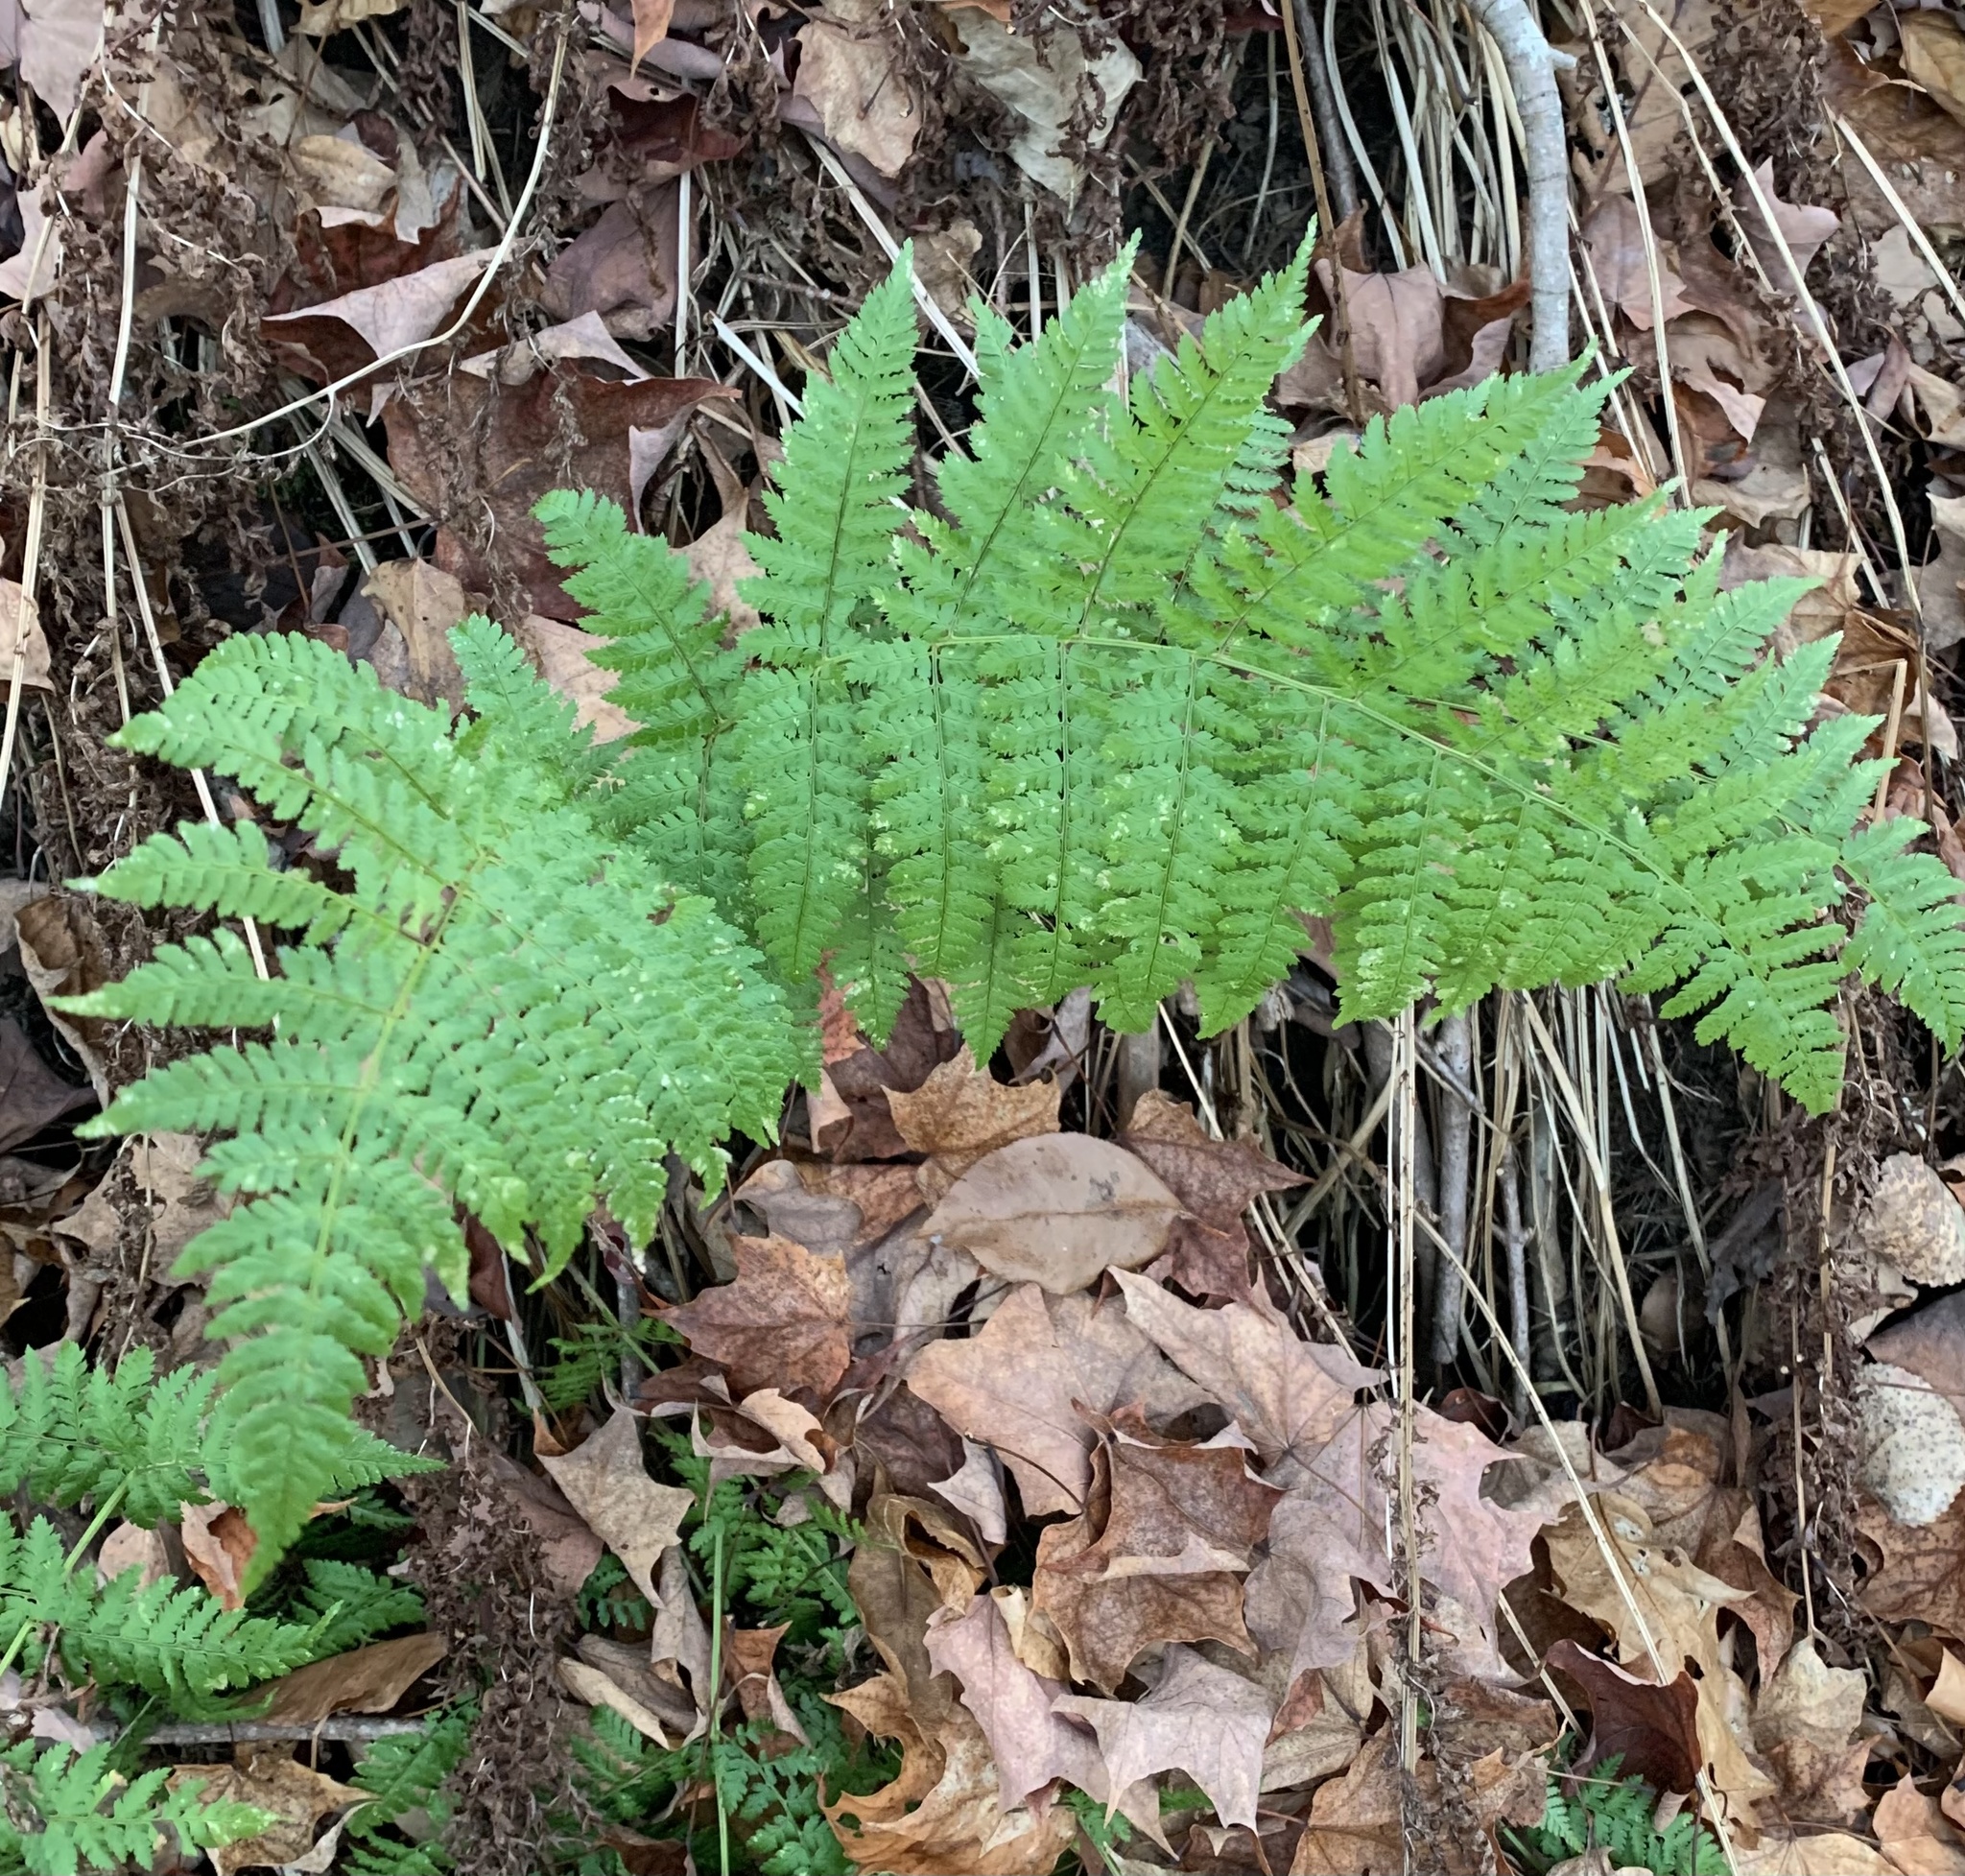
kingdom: Plantae
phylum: Tracheophyta
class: Polypodiopsida
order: Polypodiales
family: Dryopteridaceae
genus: Dryopteris
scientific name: Dryopteris intermedia
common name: Evergreen wood fern
